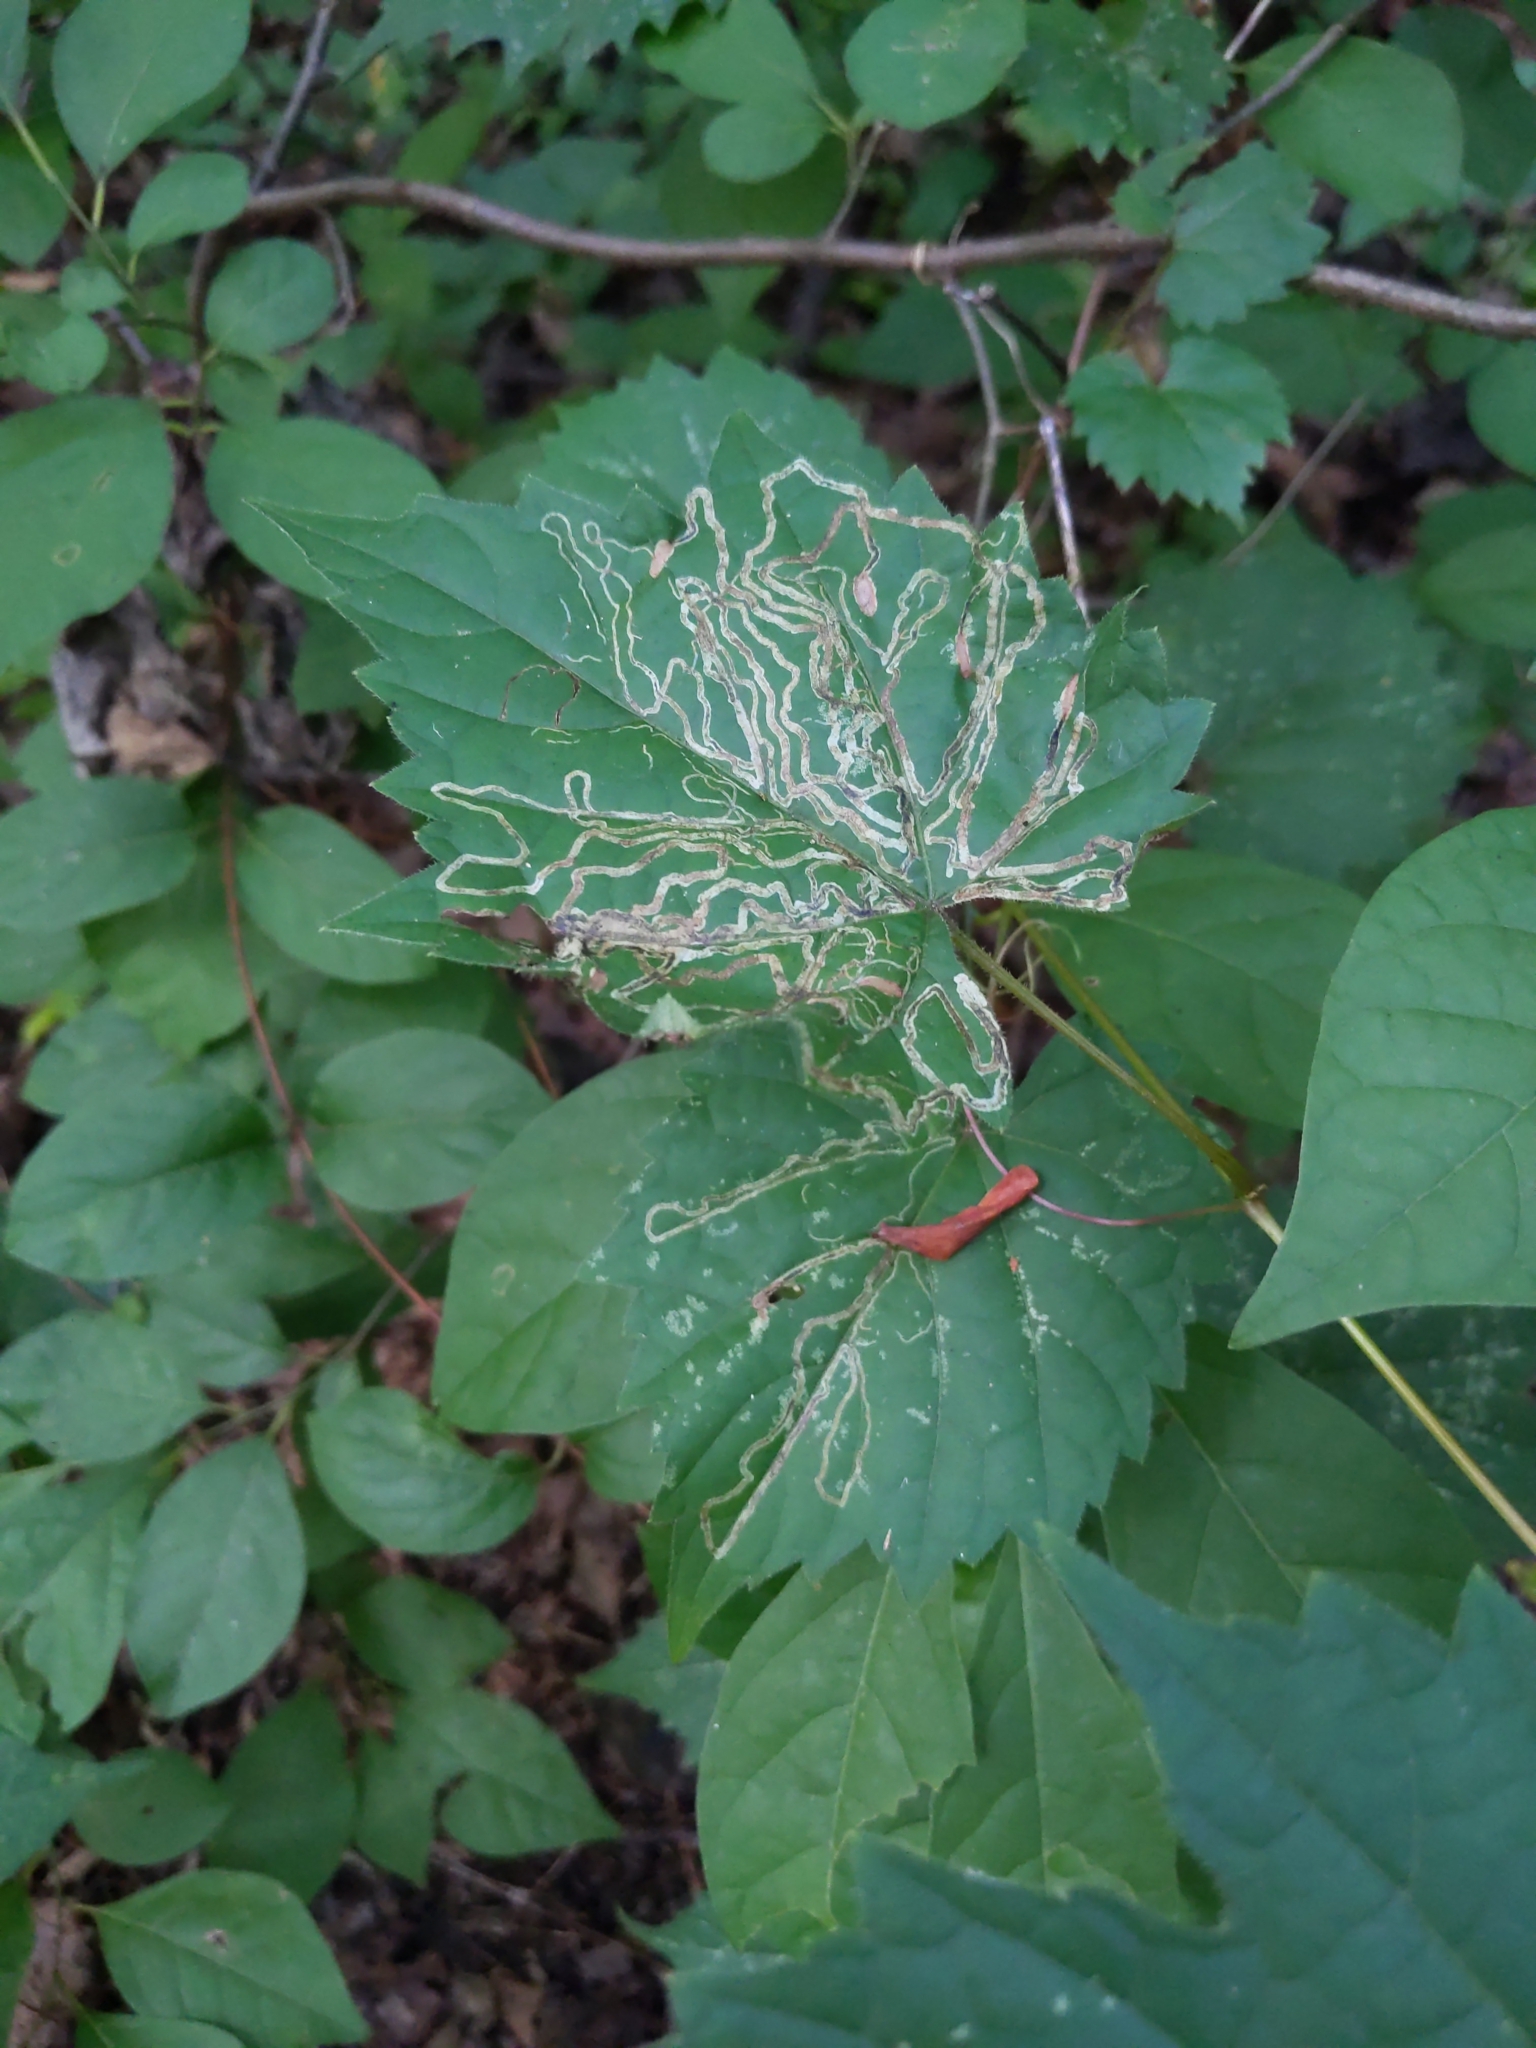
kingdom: Animalia
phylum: Arthropoda
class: Insecta
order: Lepidoptera
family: Gracillariidae
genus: Phyllocnistis
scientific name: Phyllocnistis vitifoliella
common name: Grape leaf-miner moth
